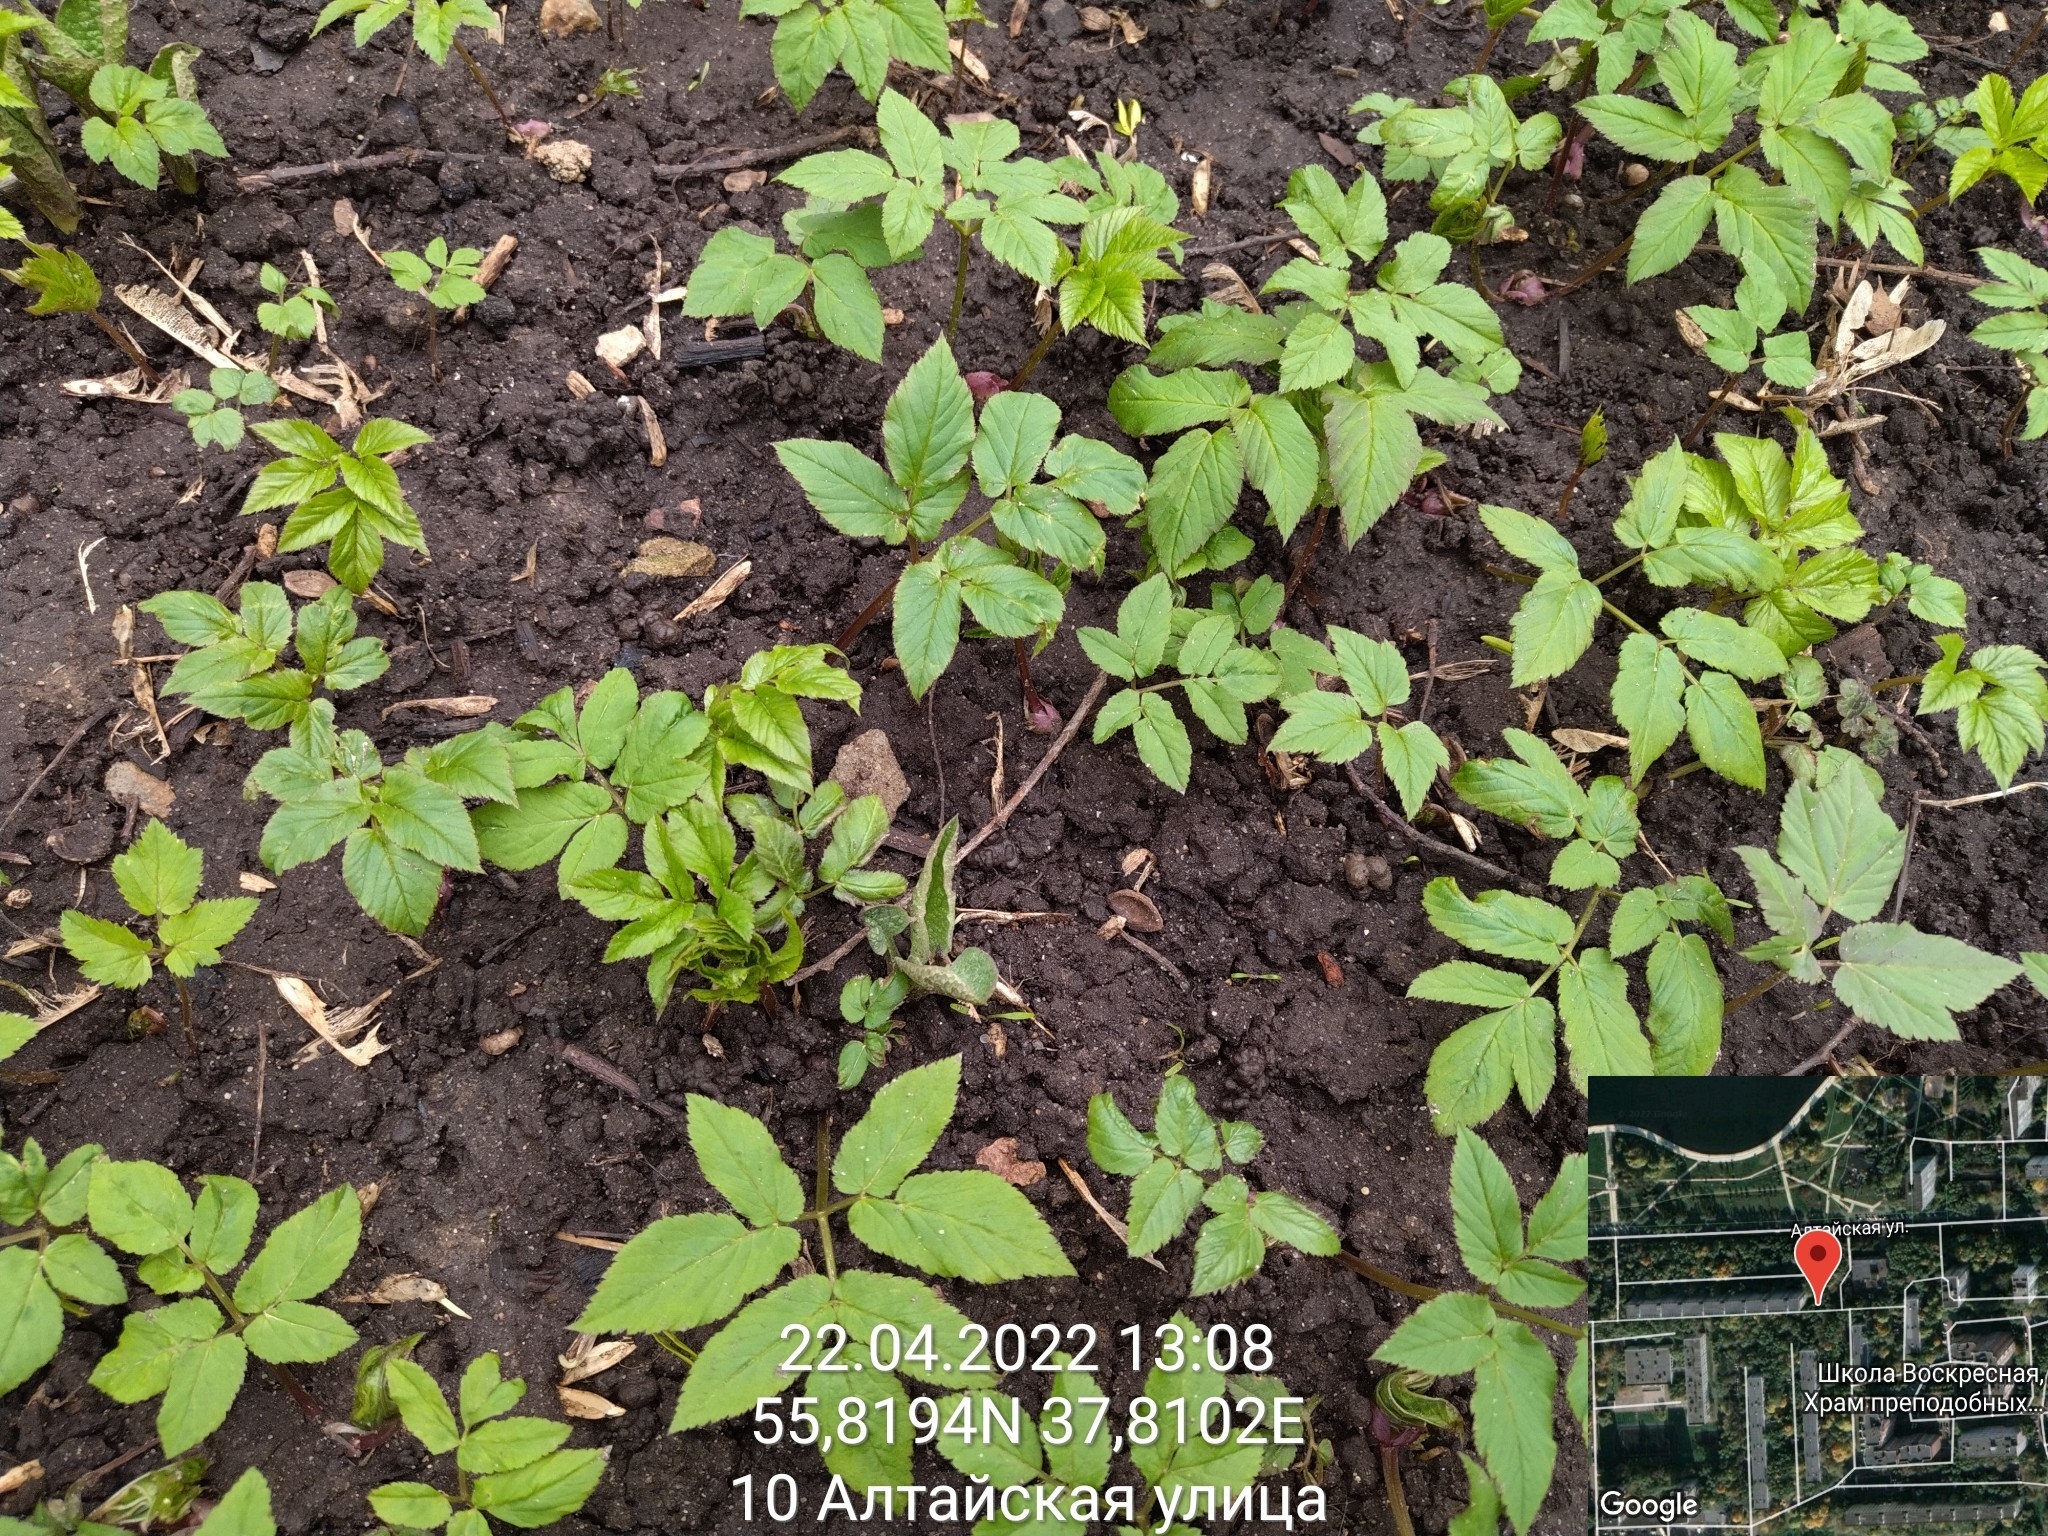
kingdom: Plantae
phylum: Tracheophyta
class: Magnoliopsida
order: Apiales
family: Apiaceae
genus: Aegopodium
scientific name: Aegopodium podagraria
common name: Ground-elder
